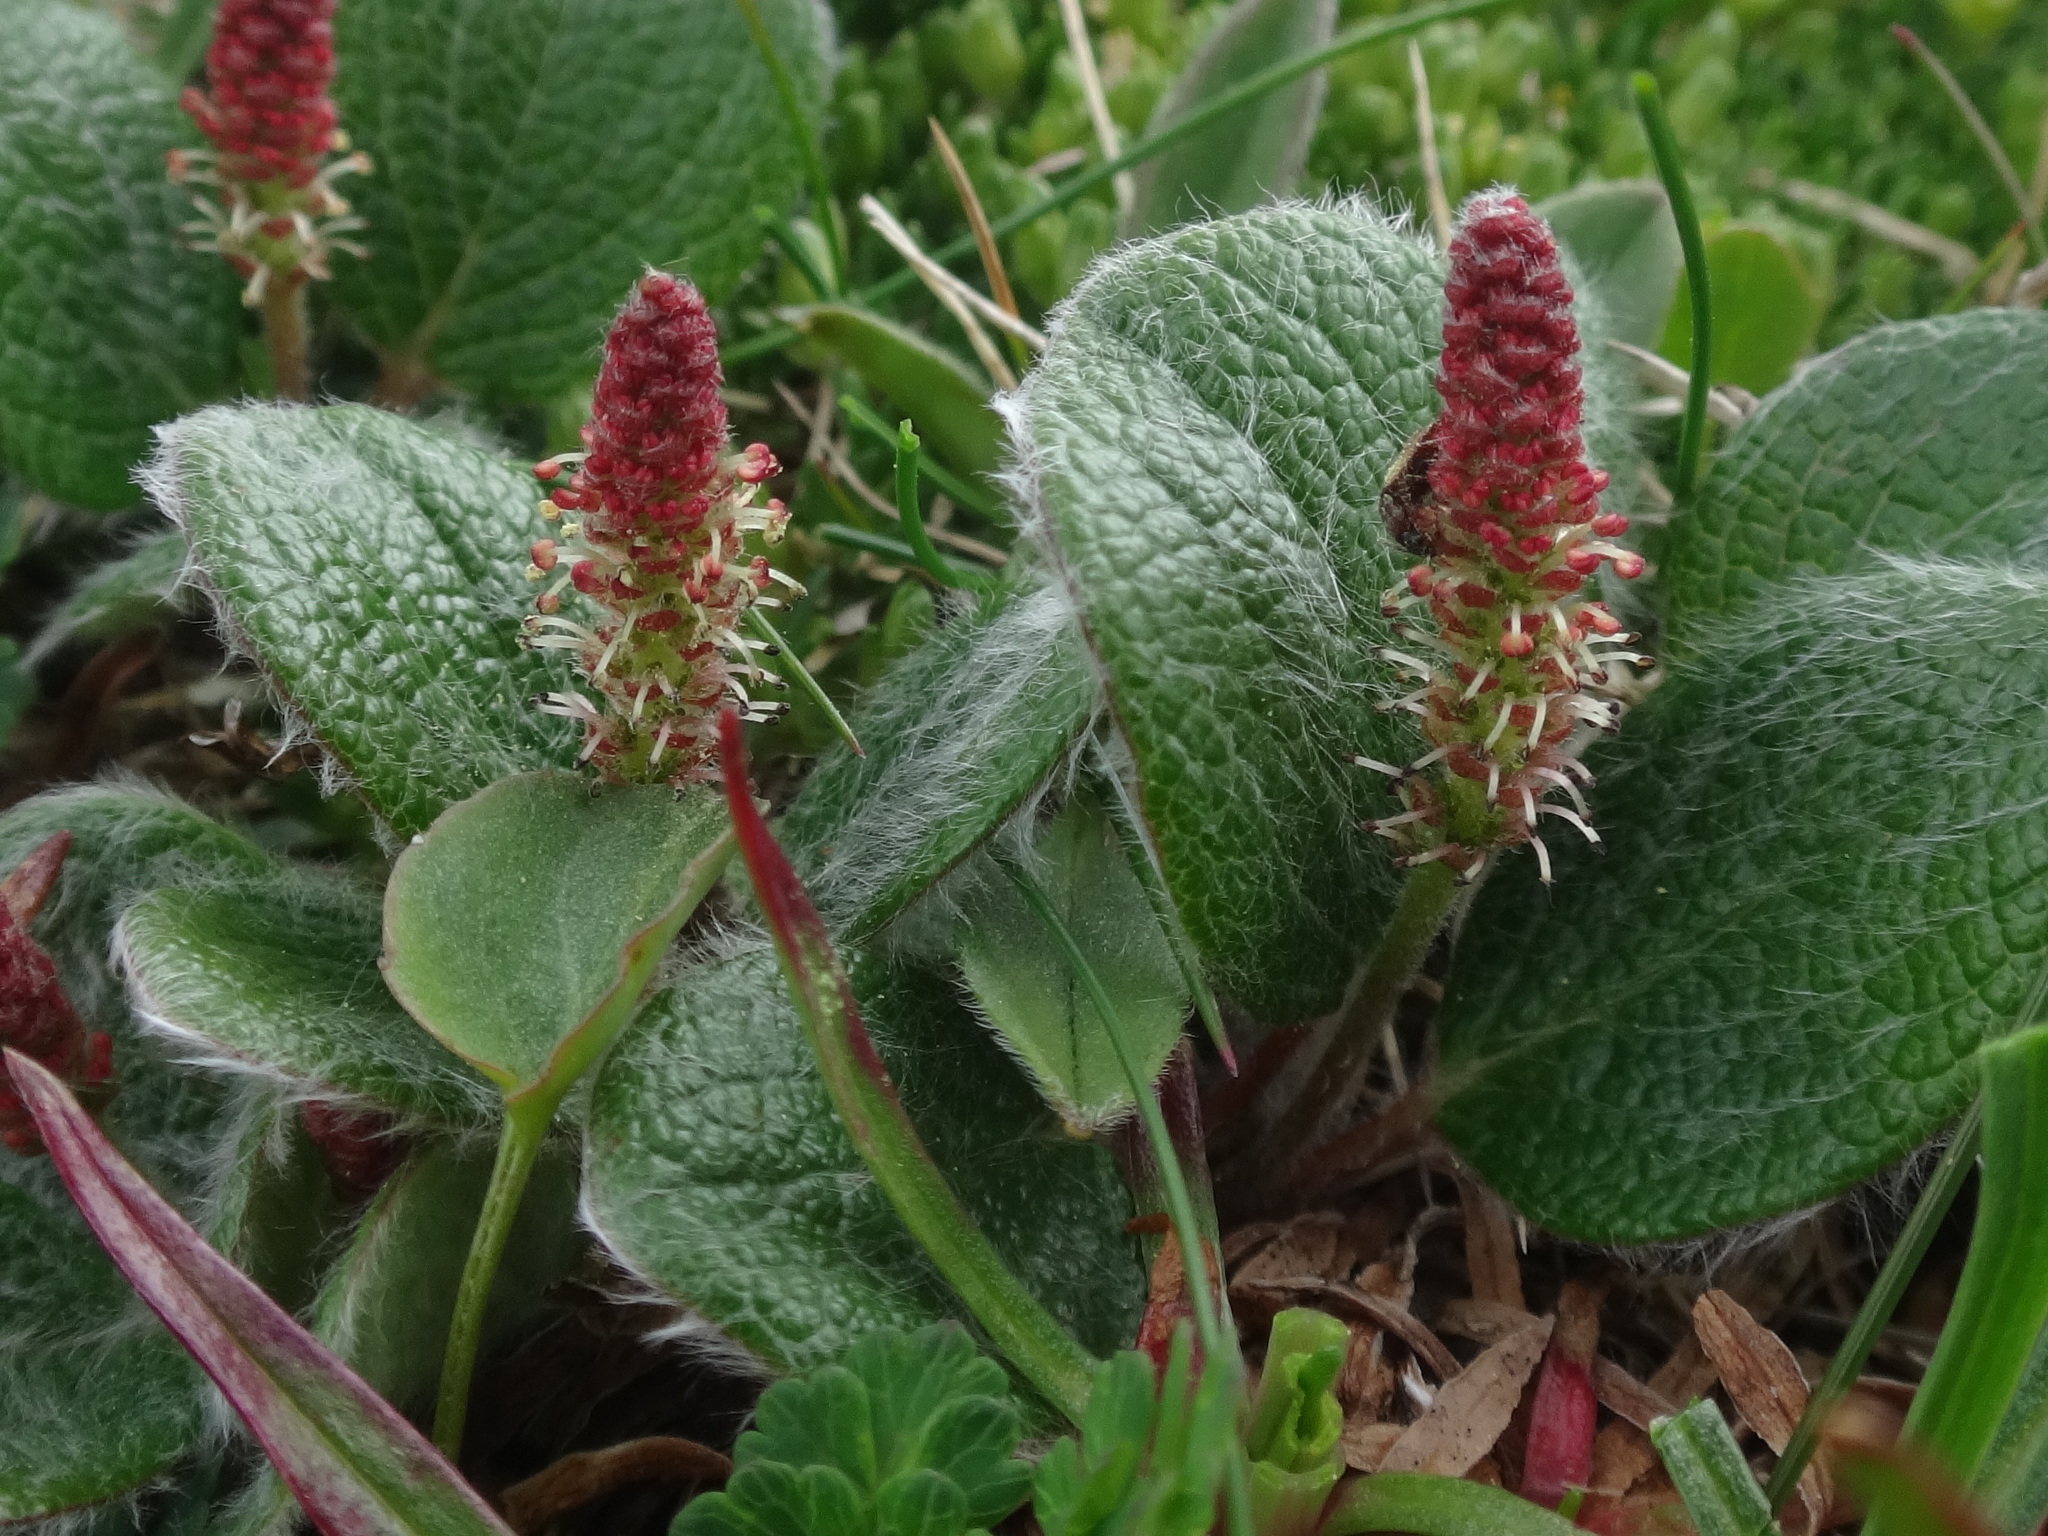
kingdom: Plantae
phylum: Tracheophyta
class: Magnoliopsida
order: Malpighiales
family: Salicaceae
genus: Salix
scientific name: Salix reticulata
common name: Net-leaved willow
